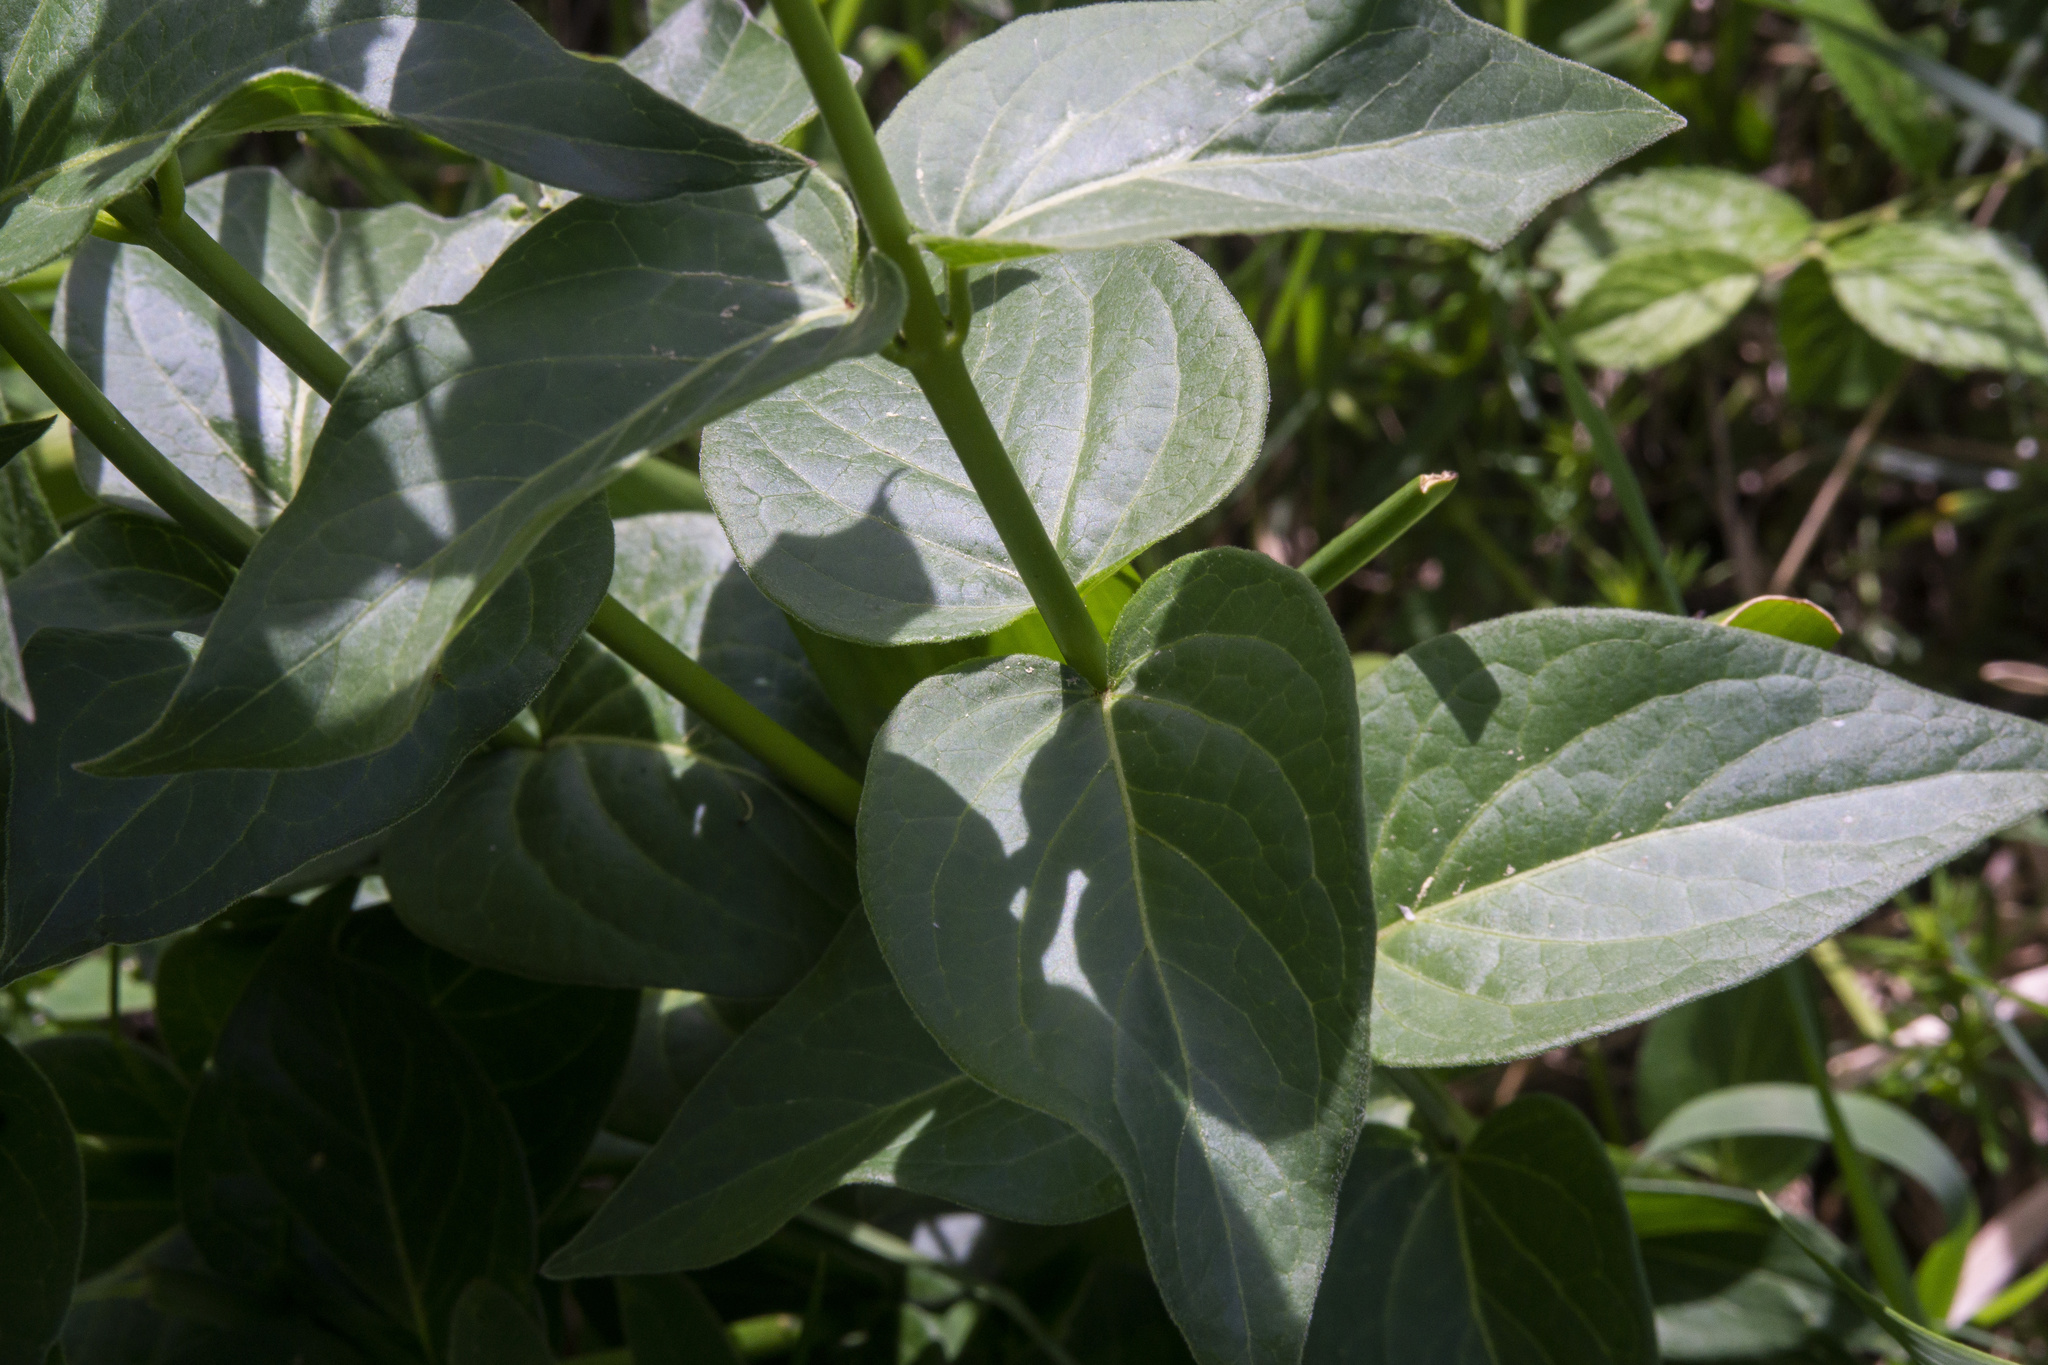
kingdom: Plantae
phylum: Tracheophyta
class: Magnoliopsida
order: Gentianales
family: Apocynaceae
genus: Vincetoxicum
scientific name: Vincetoxicum hirundinaria
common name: White swallowwort
